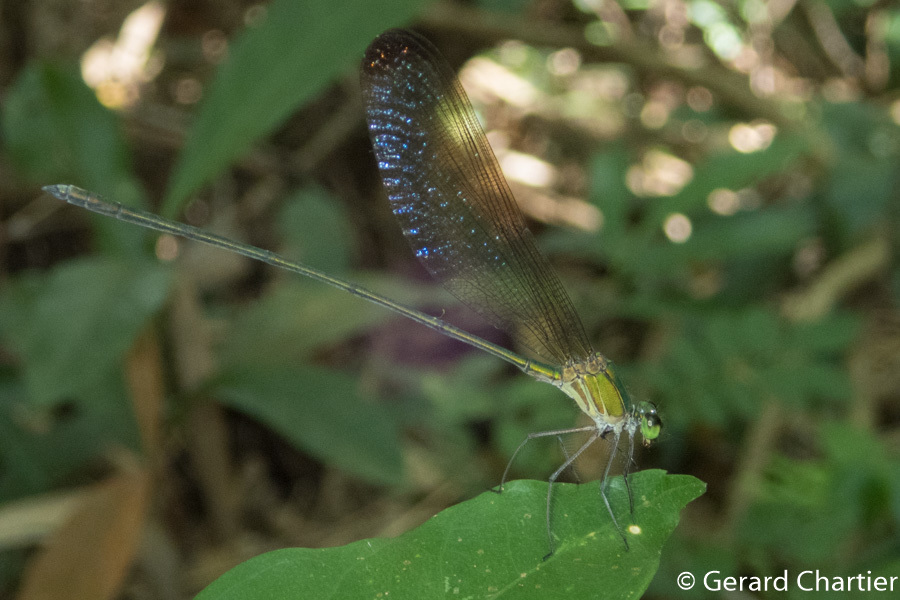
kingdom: Animalia
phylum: Arthropoda
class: Insecta
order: Odonata
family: Calopterygidae
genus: Vestalis
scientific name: Vestalis gracilis
